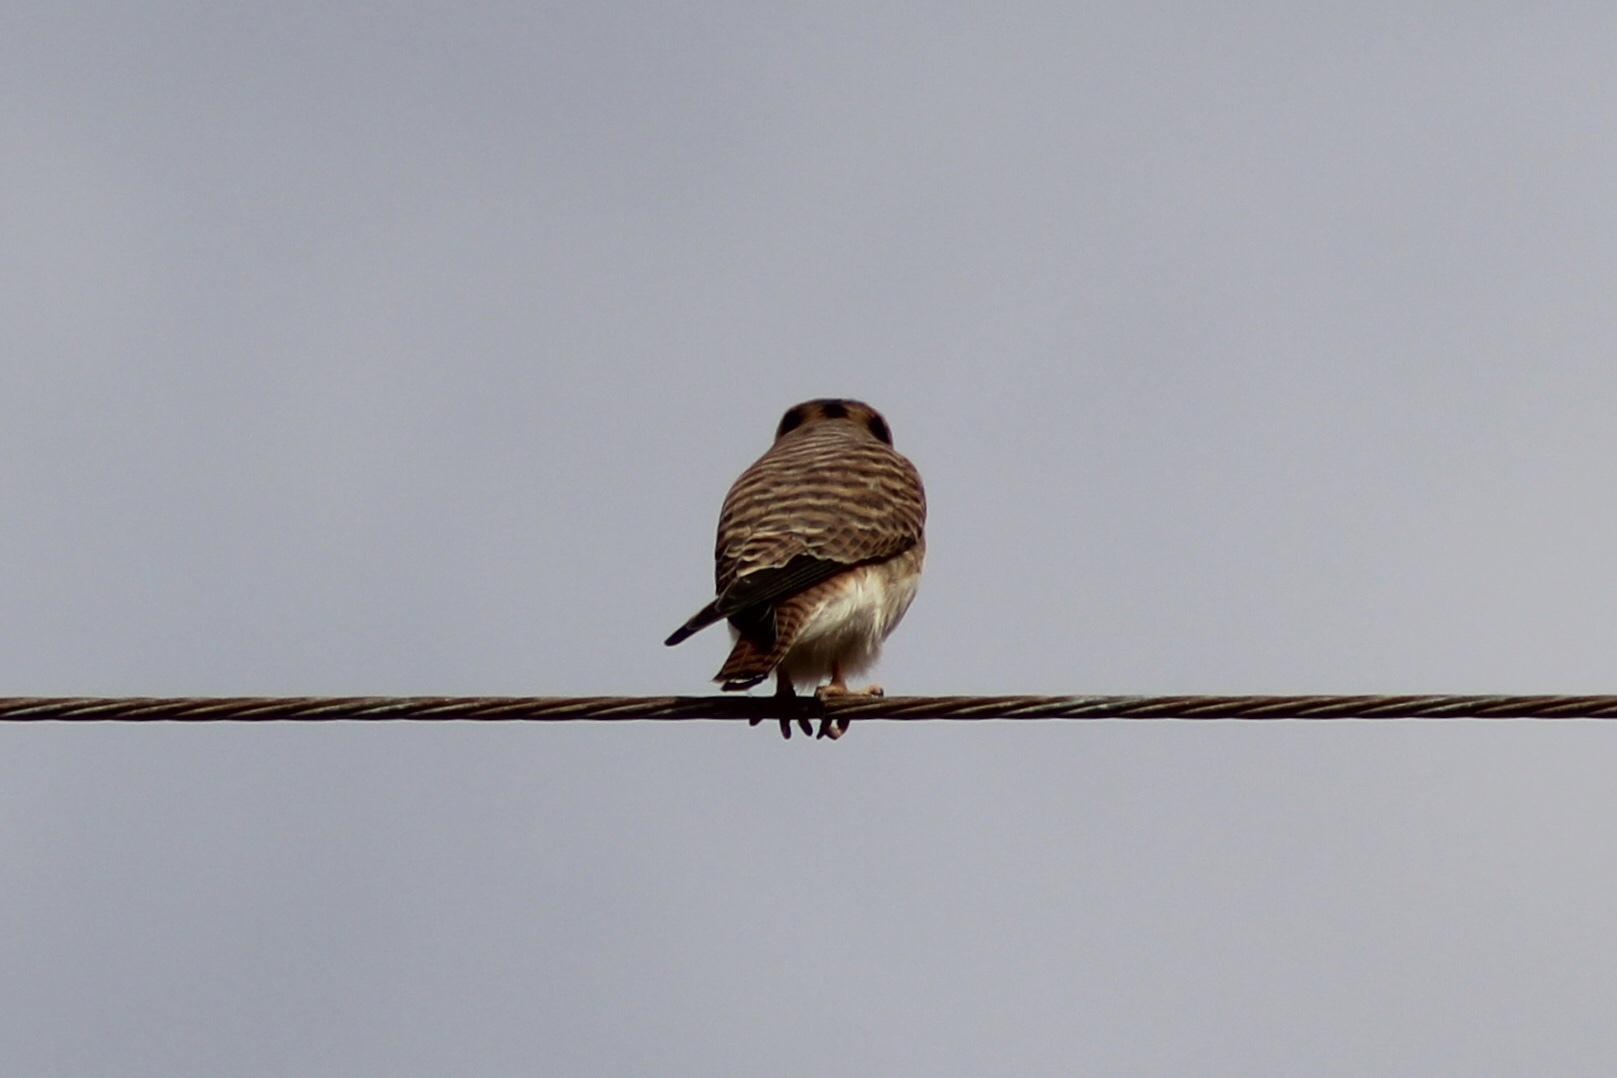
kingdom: Animalia
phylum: Chordata
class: Aves
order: Falconiformes
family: Falconidae
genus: Falco
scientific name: Falco sparverius
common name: American kestrel
